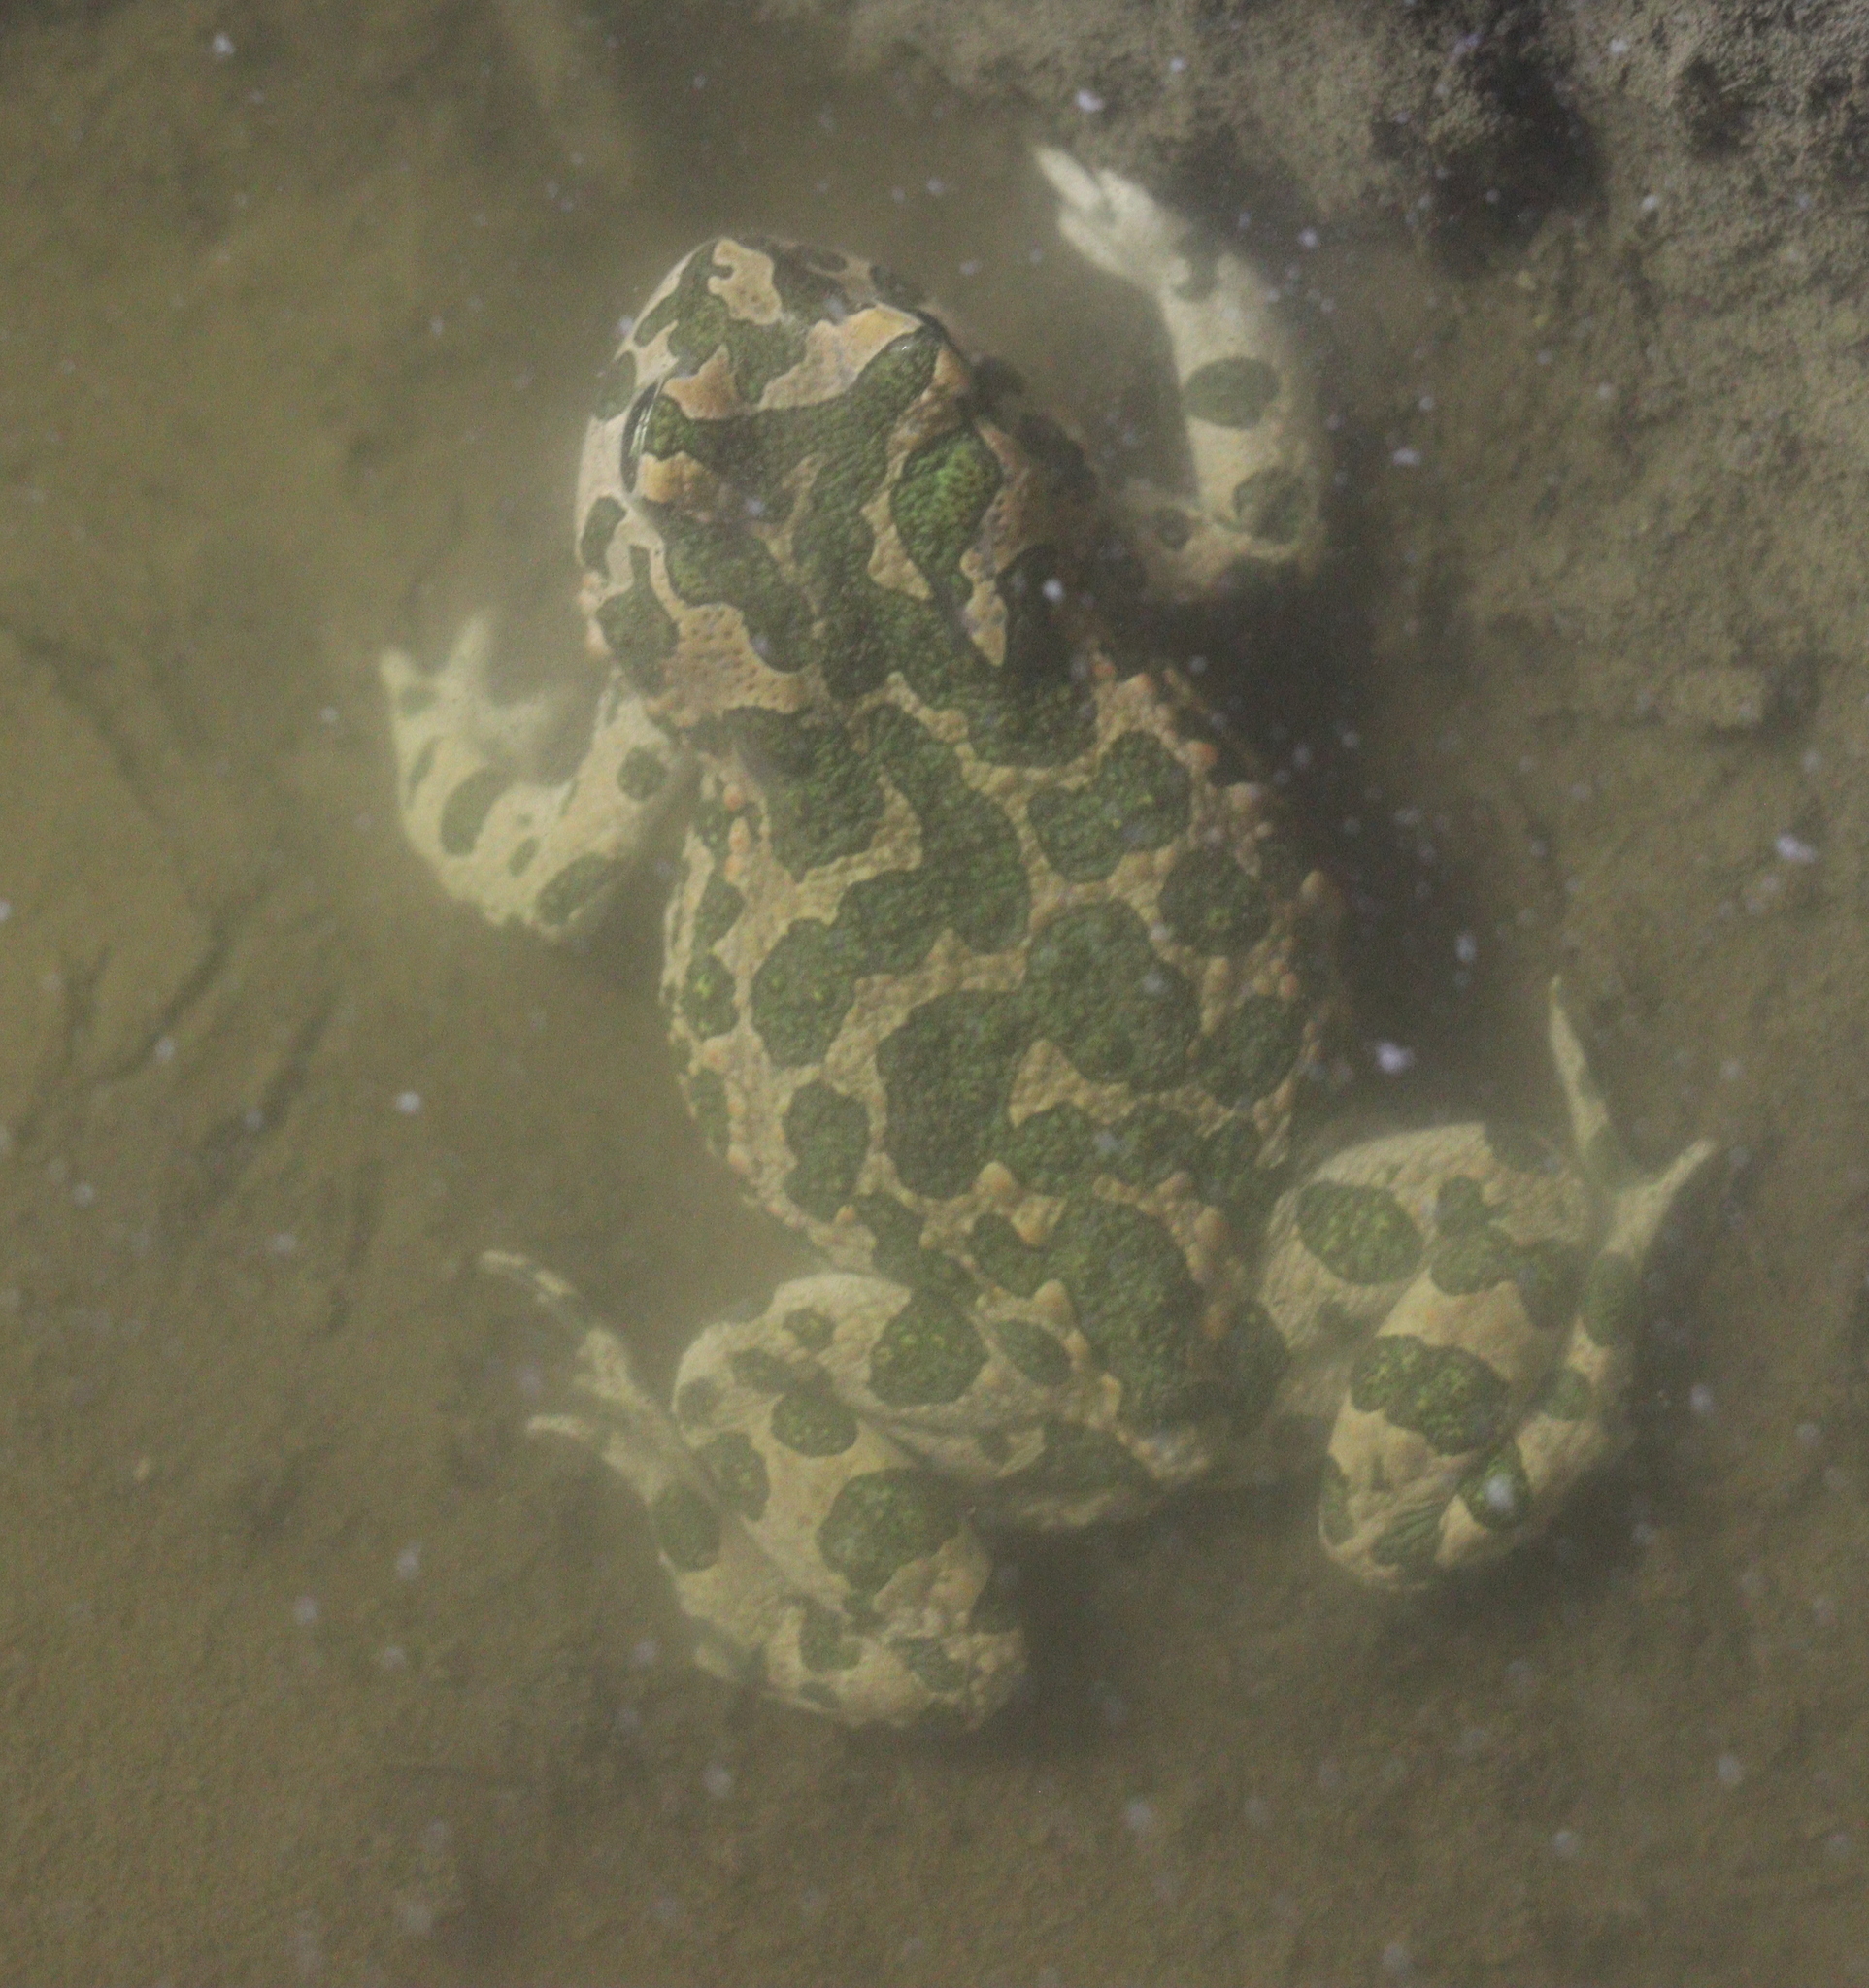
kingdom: Animalia
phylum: Chordata
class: Amphibia
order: Anura
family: Bufonidae
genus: Bufotes
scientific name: Bufotes viridis
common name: European green toad
